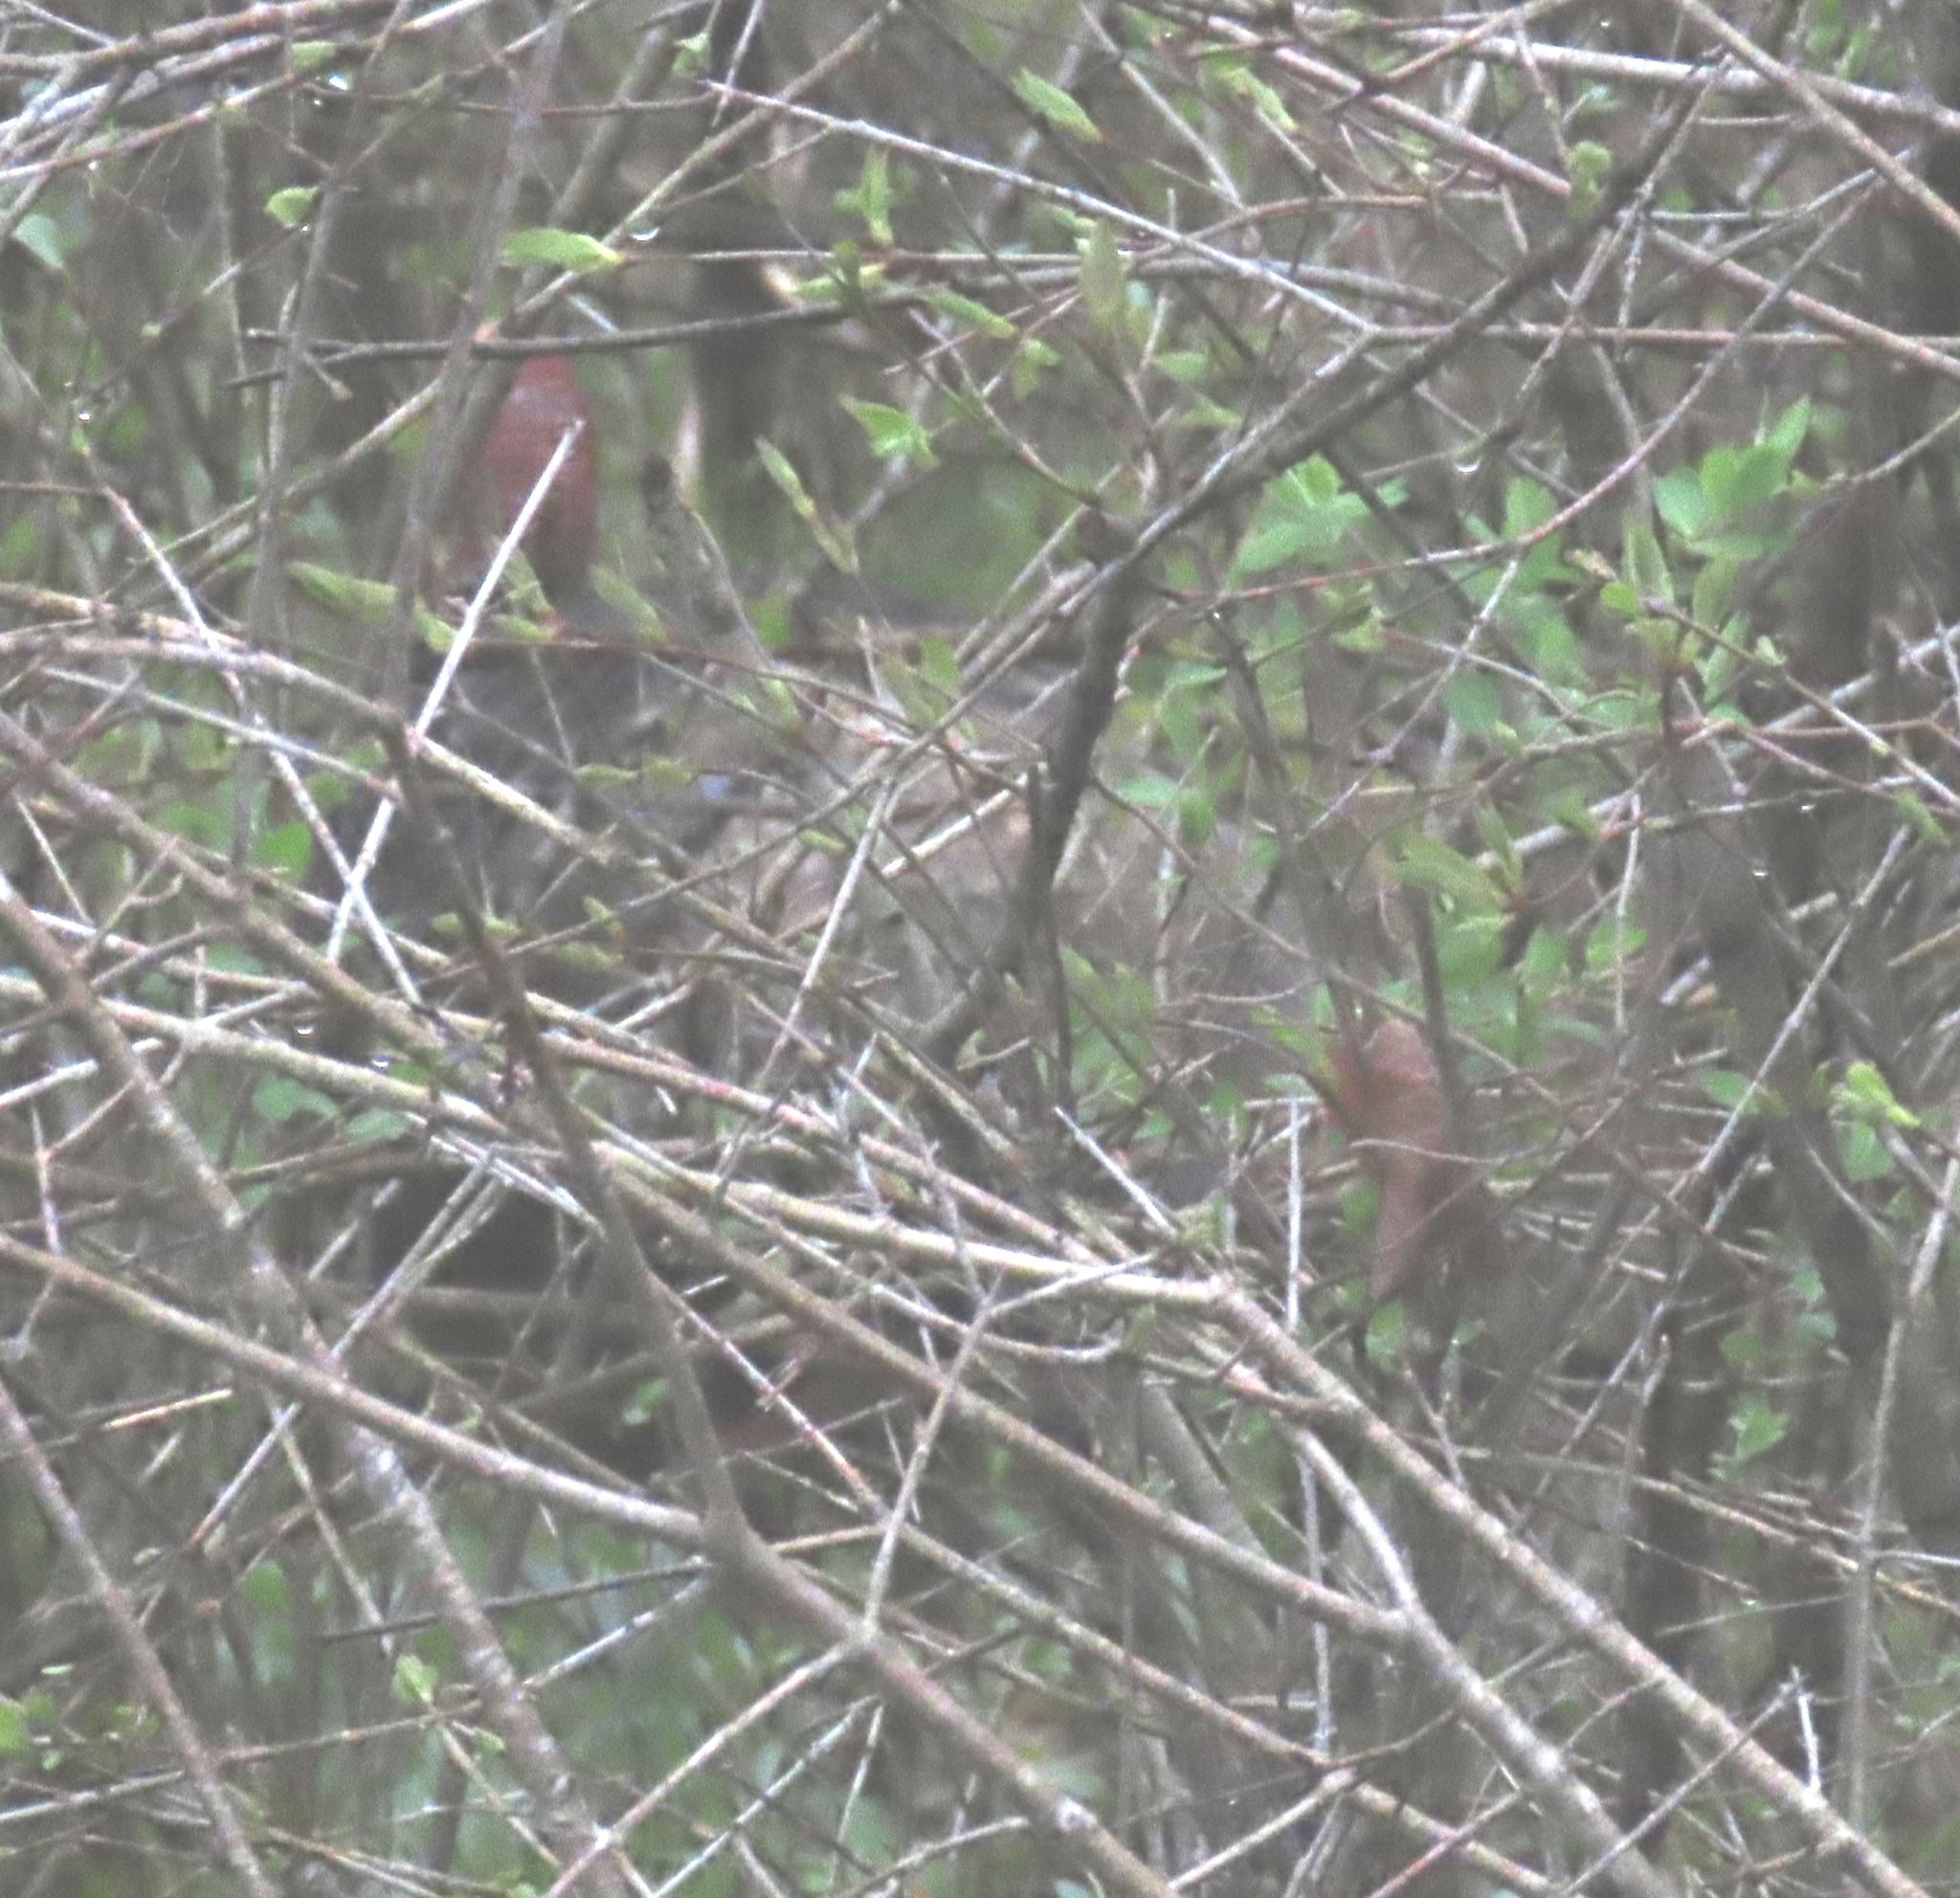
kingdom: Animalia
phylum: Chordata
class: Aves
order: Galliformes
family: Phasianidae
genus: Meleagris
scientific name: Meleagris gallopavo
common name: Wild turkey
